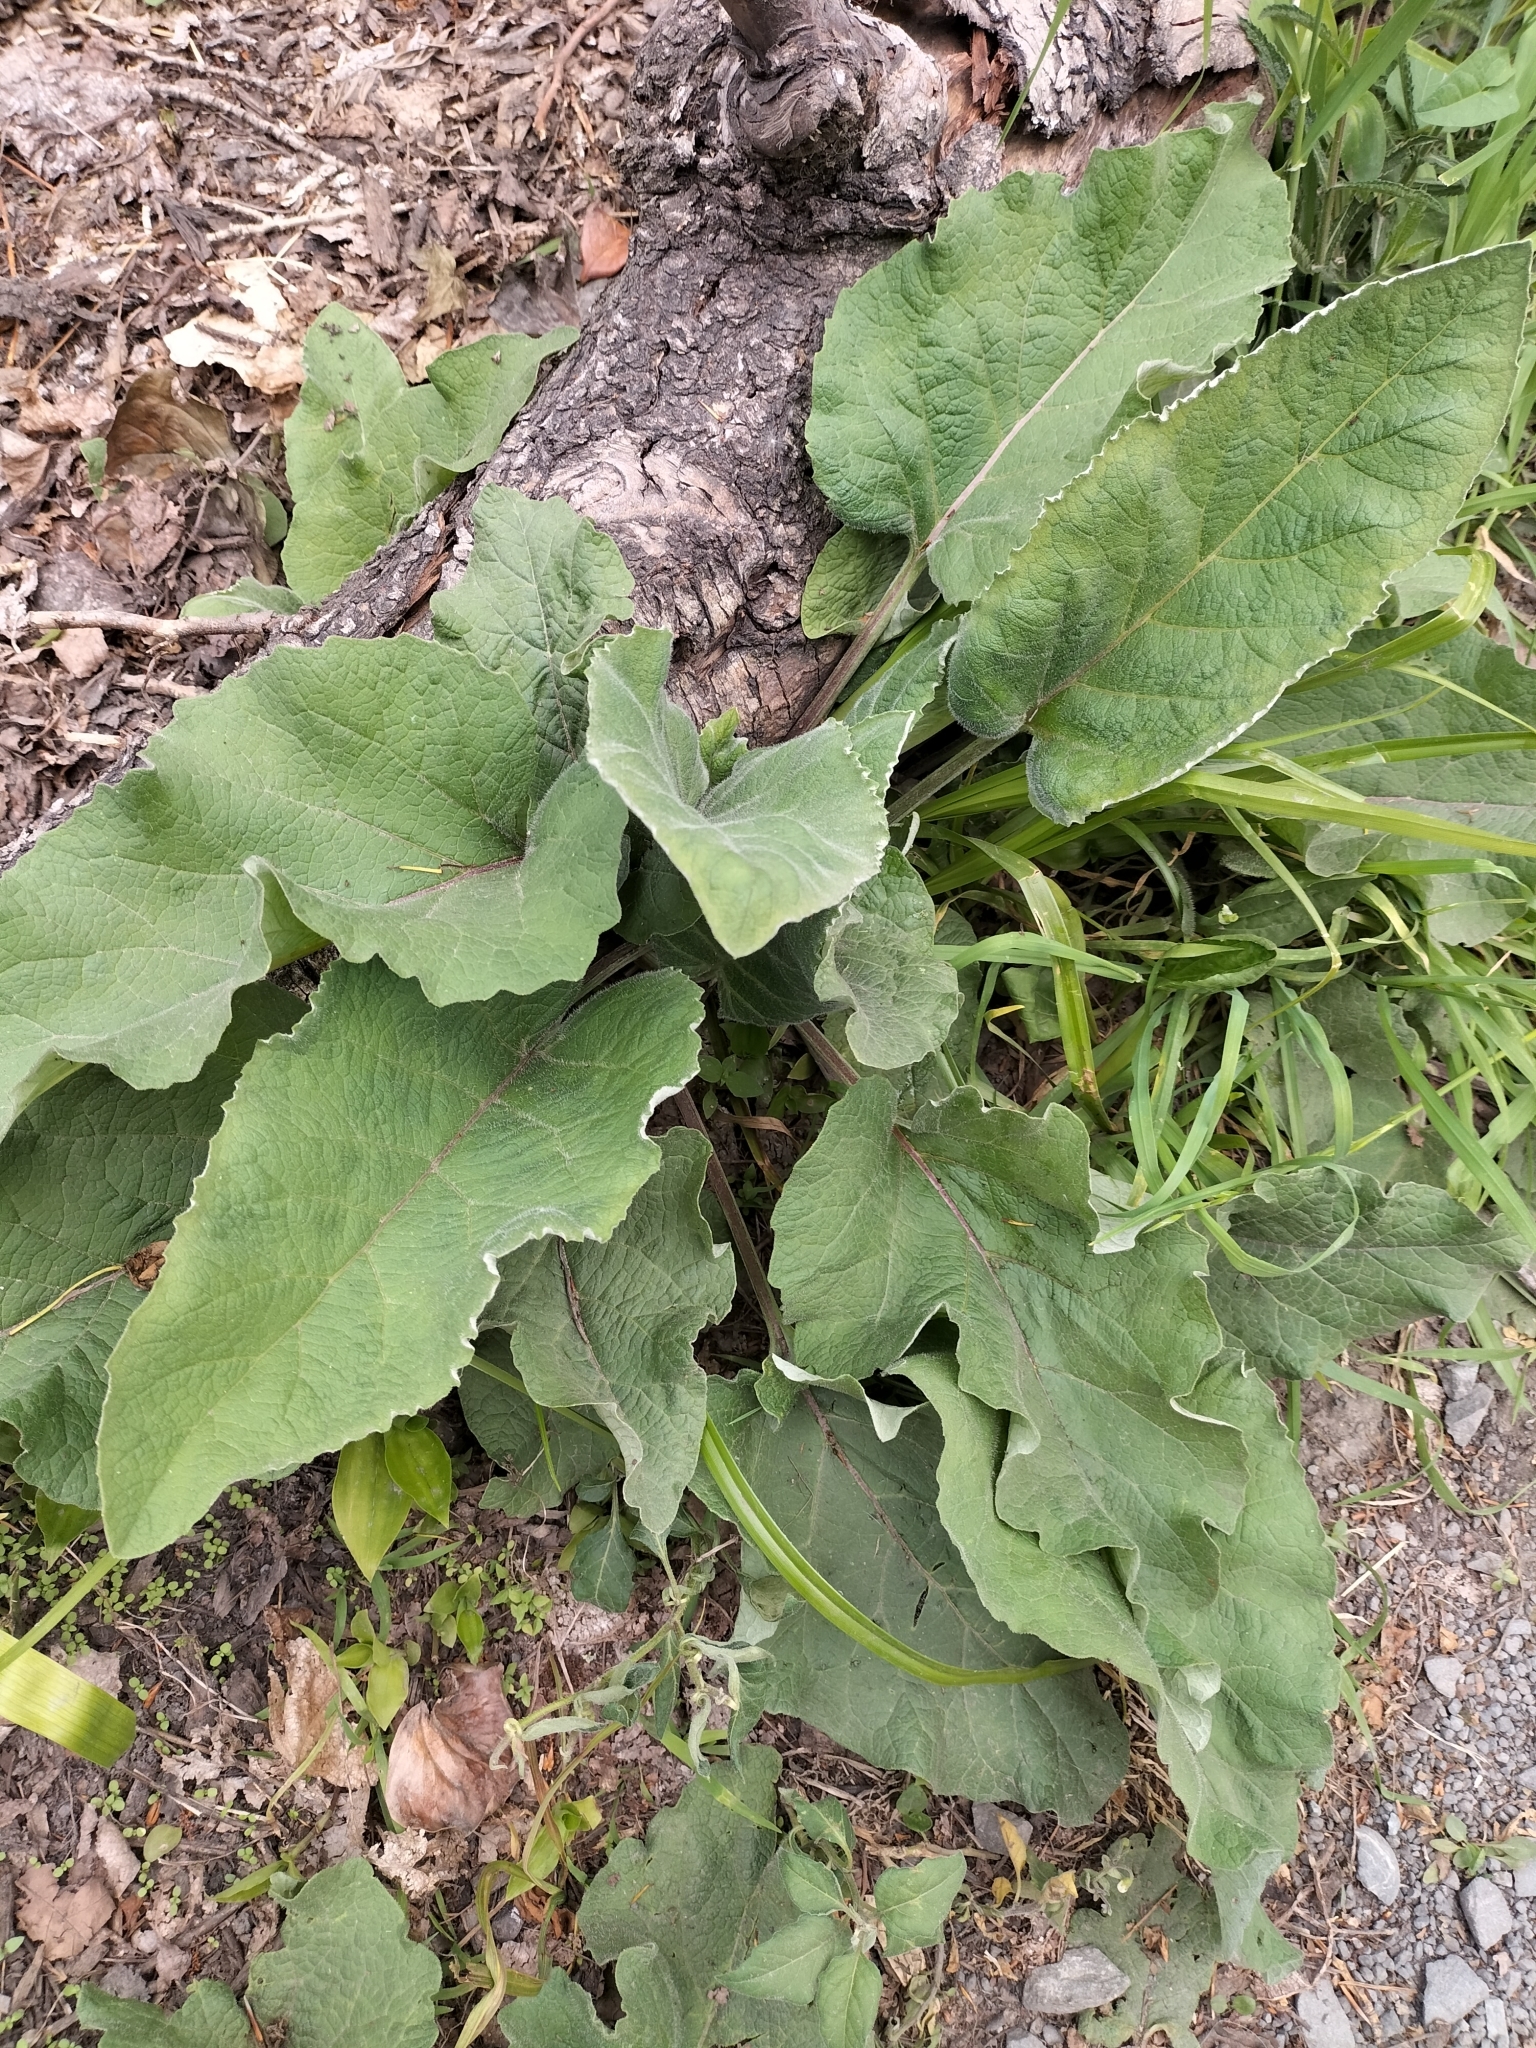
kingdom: Plantae
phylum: Tracheophyta
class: Magnoliopsida
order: Asterales
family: Asteraceae
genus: Arctium
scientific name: Arctium minus
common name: Lesser burdock
